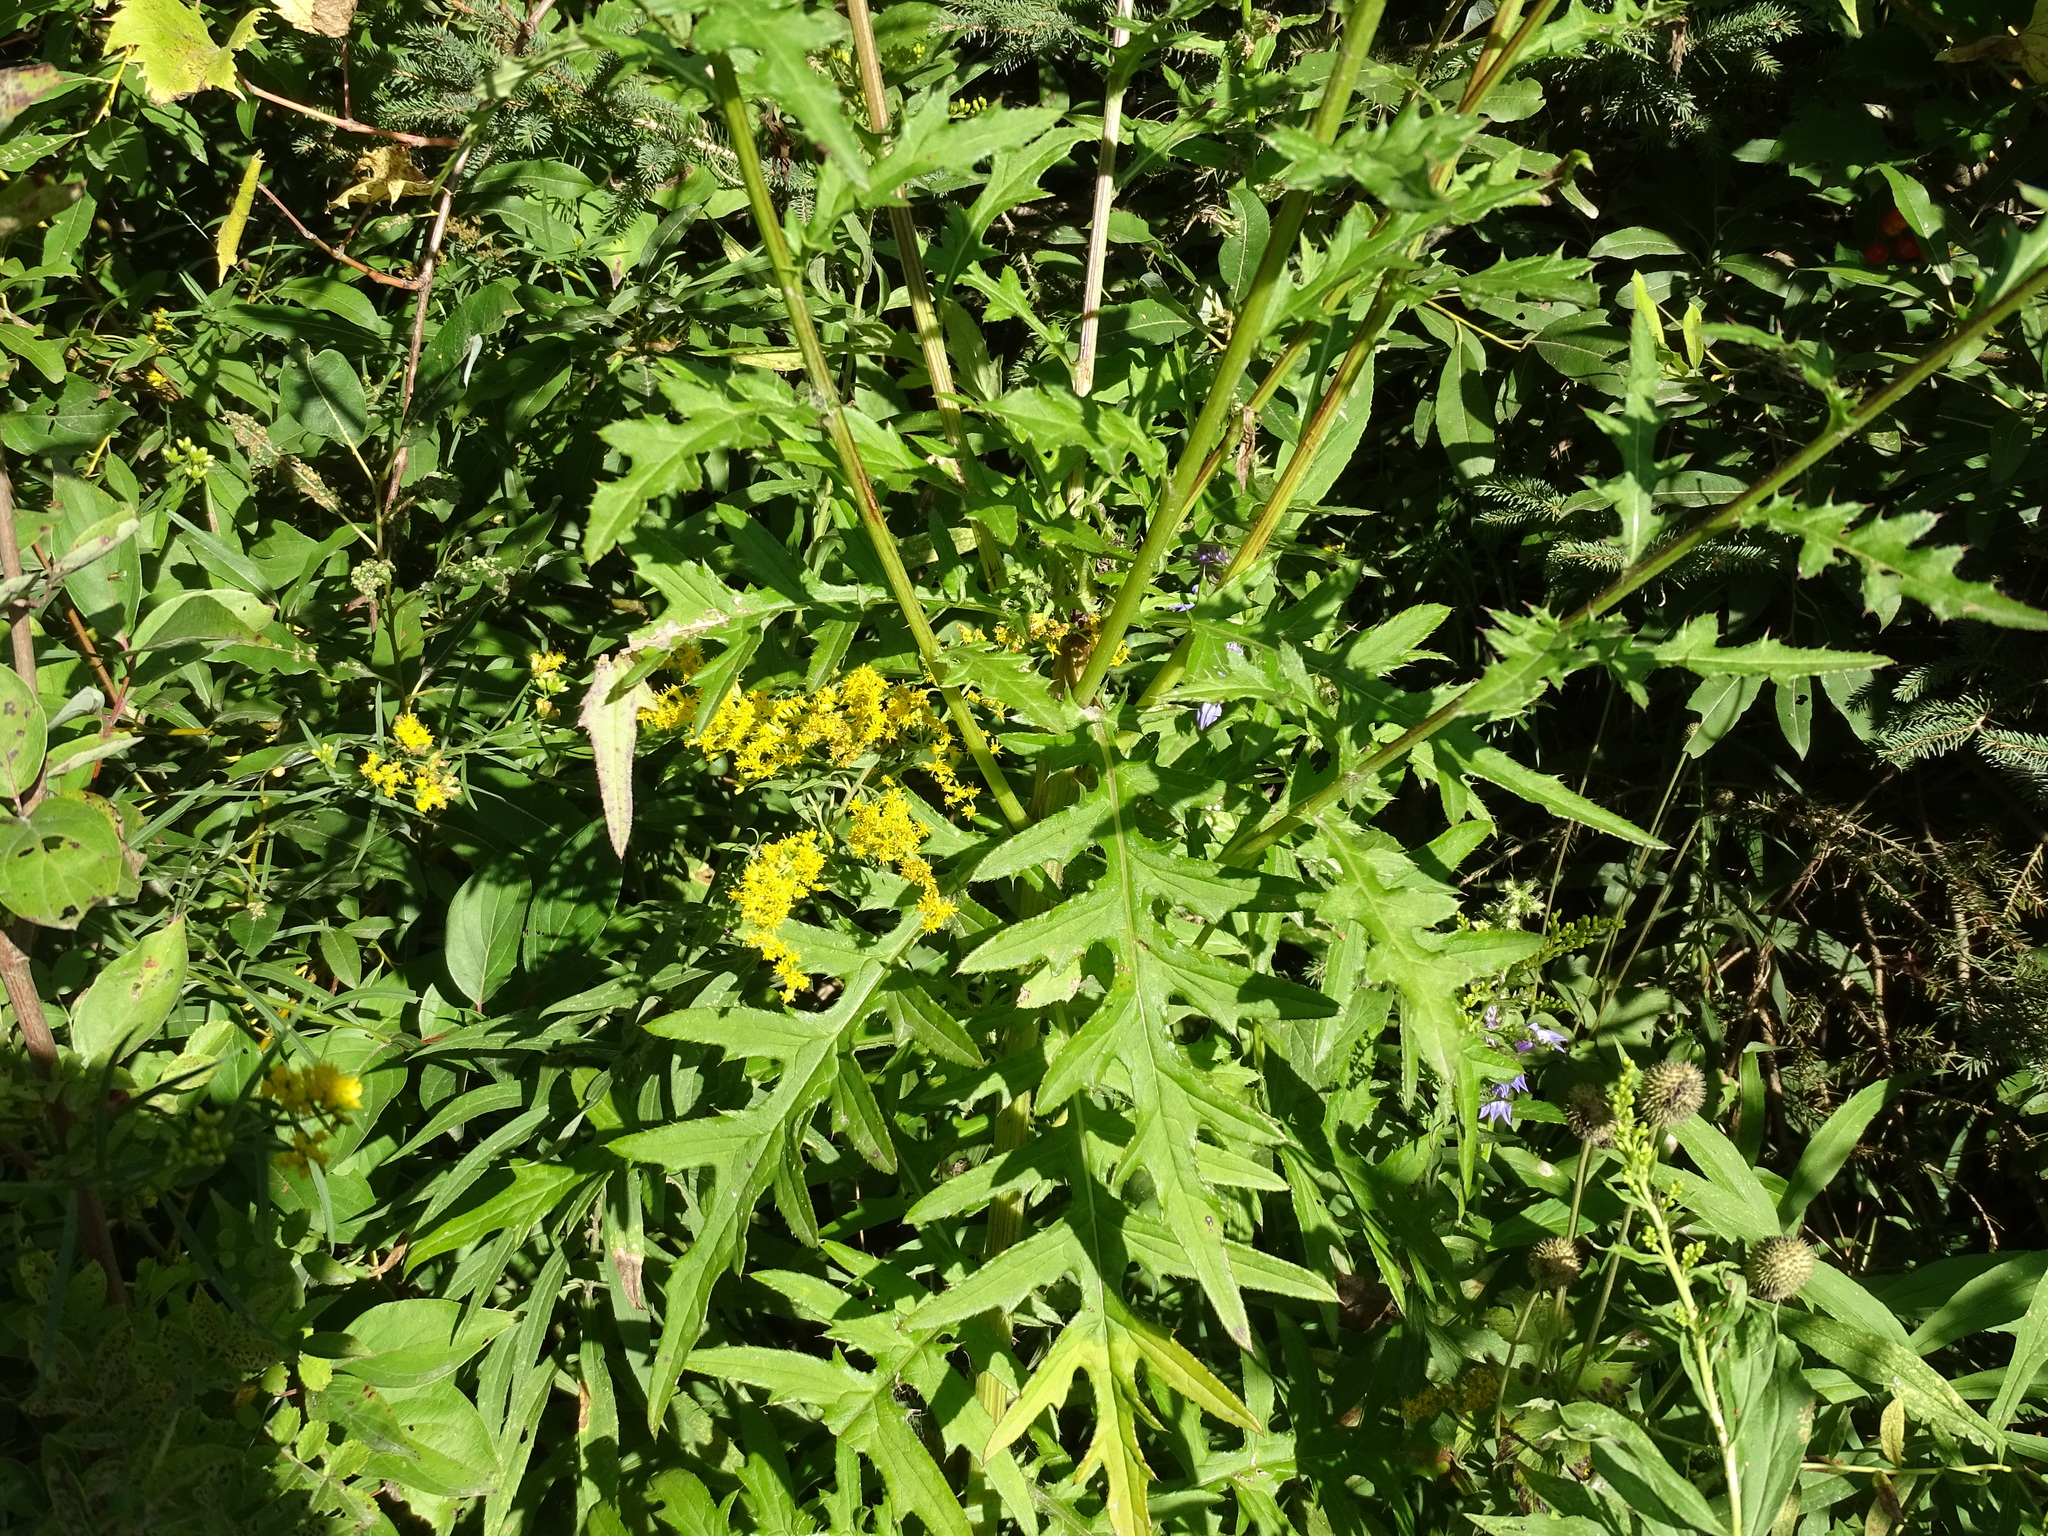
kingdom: Plantae
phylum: Tracheophyta
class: Magnoliopsida
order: Asterales
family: Asteraceae
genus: Cirsium
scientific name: Cirsium muticum
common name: Dunce-nettle
